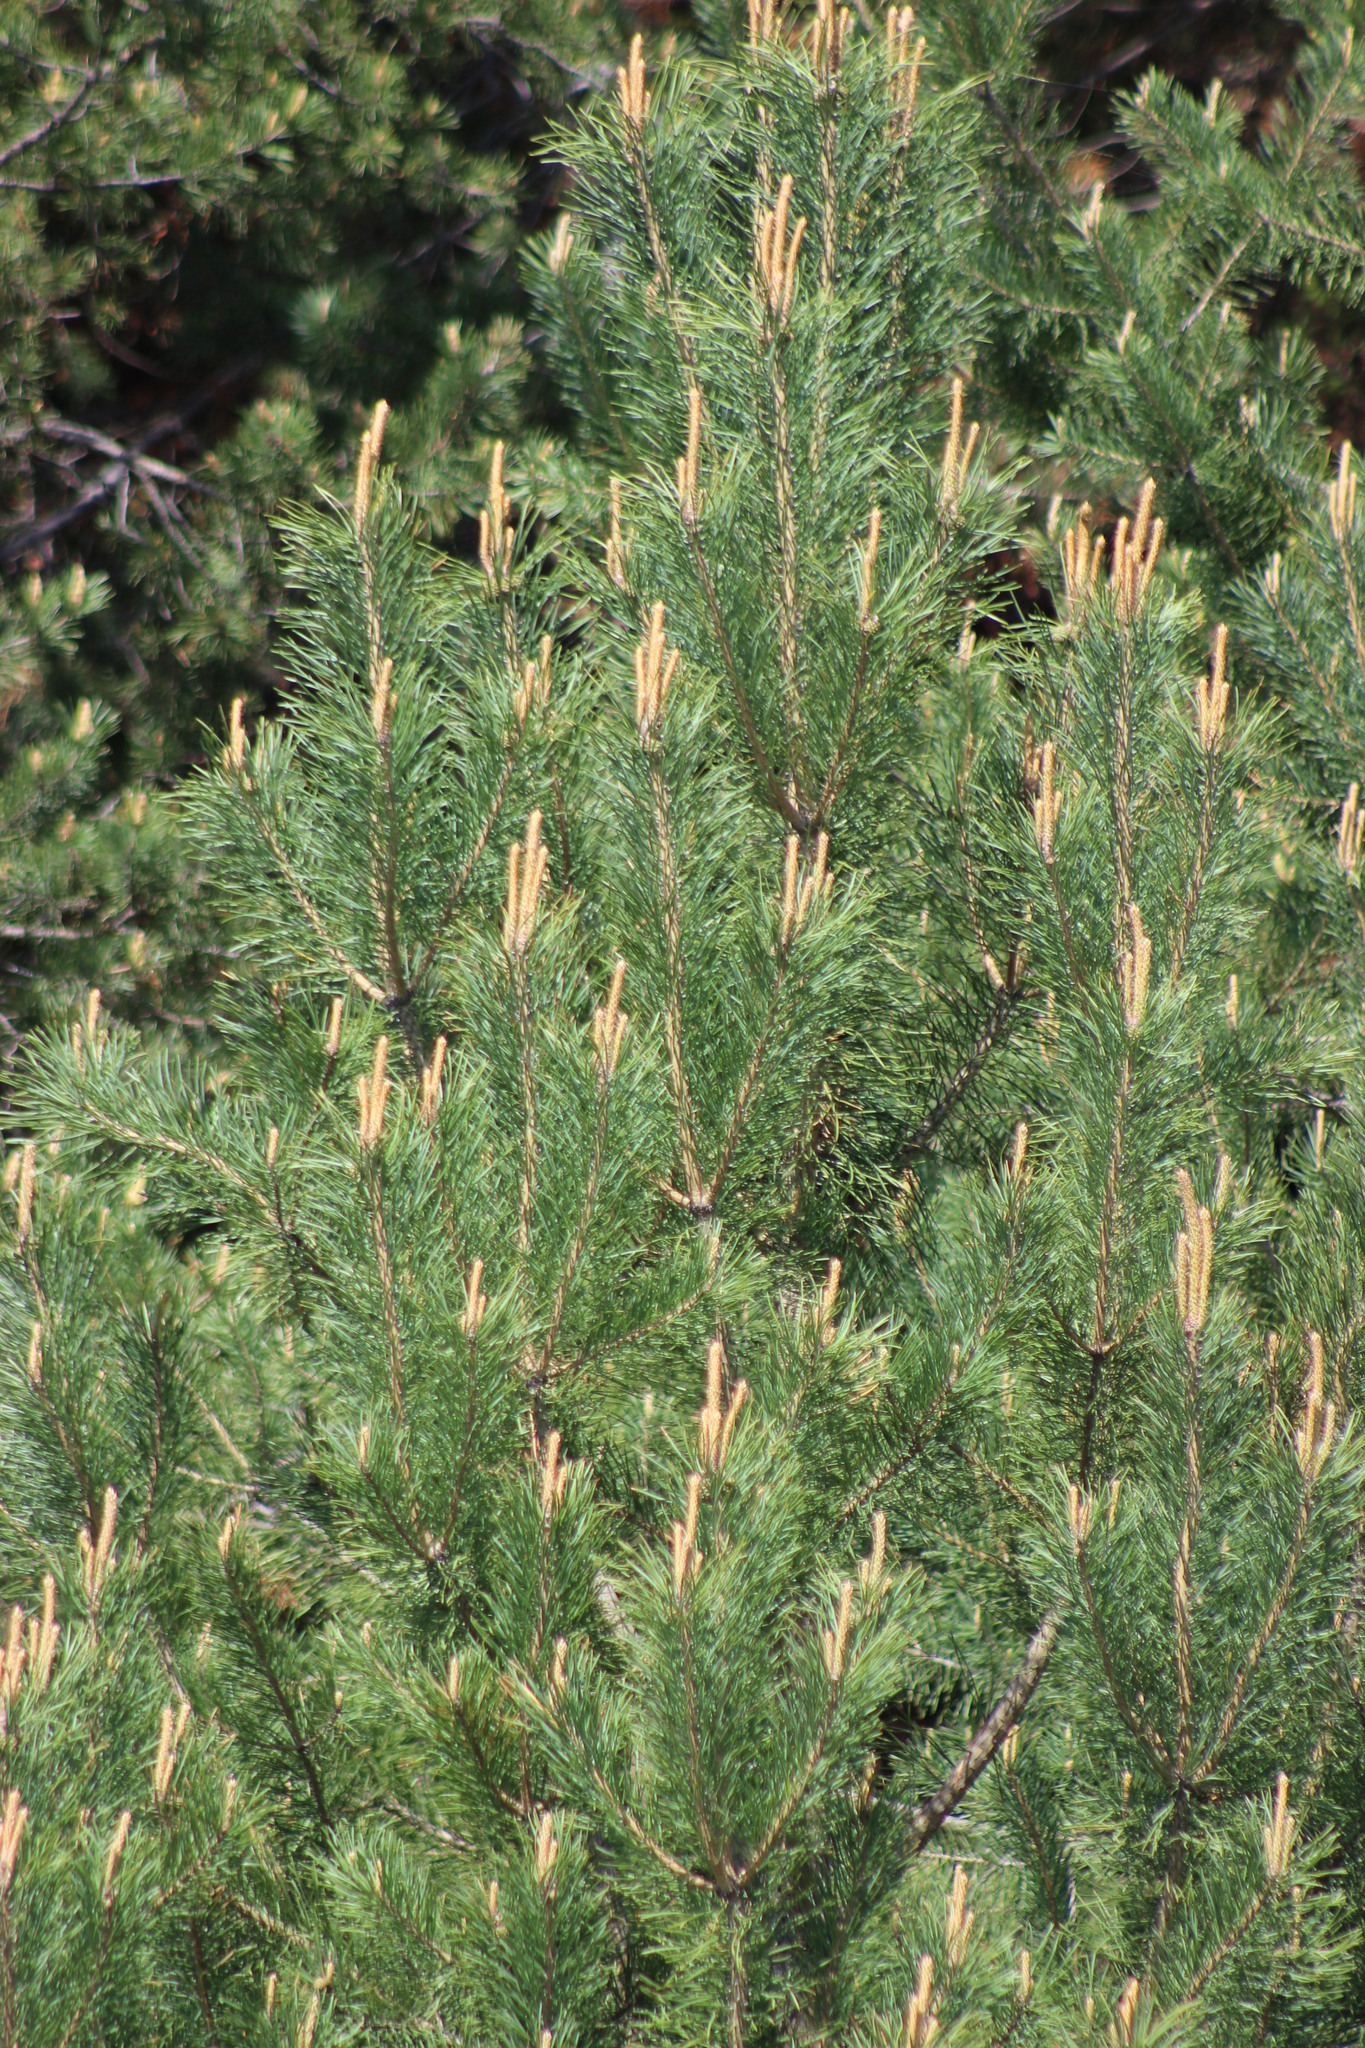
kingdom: Plantae
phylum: Tracheophyta
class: Pinopsida
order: Pinales
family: Pinaceae
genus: Pinus
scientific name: Pinus sylvestris
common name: Scots pine
